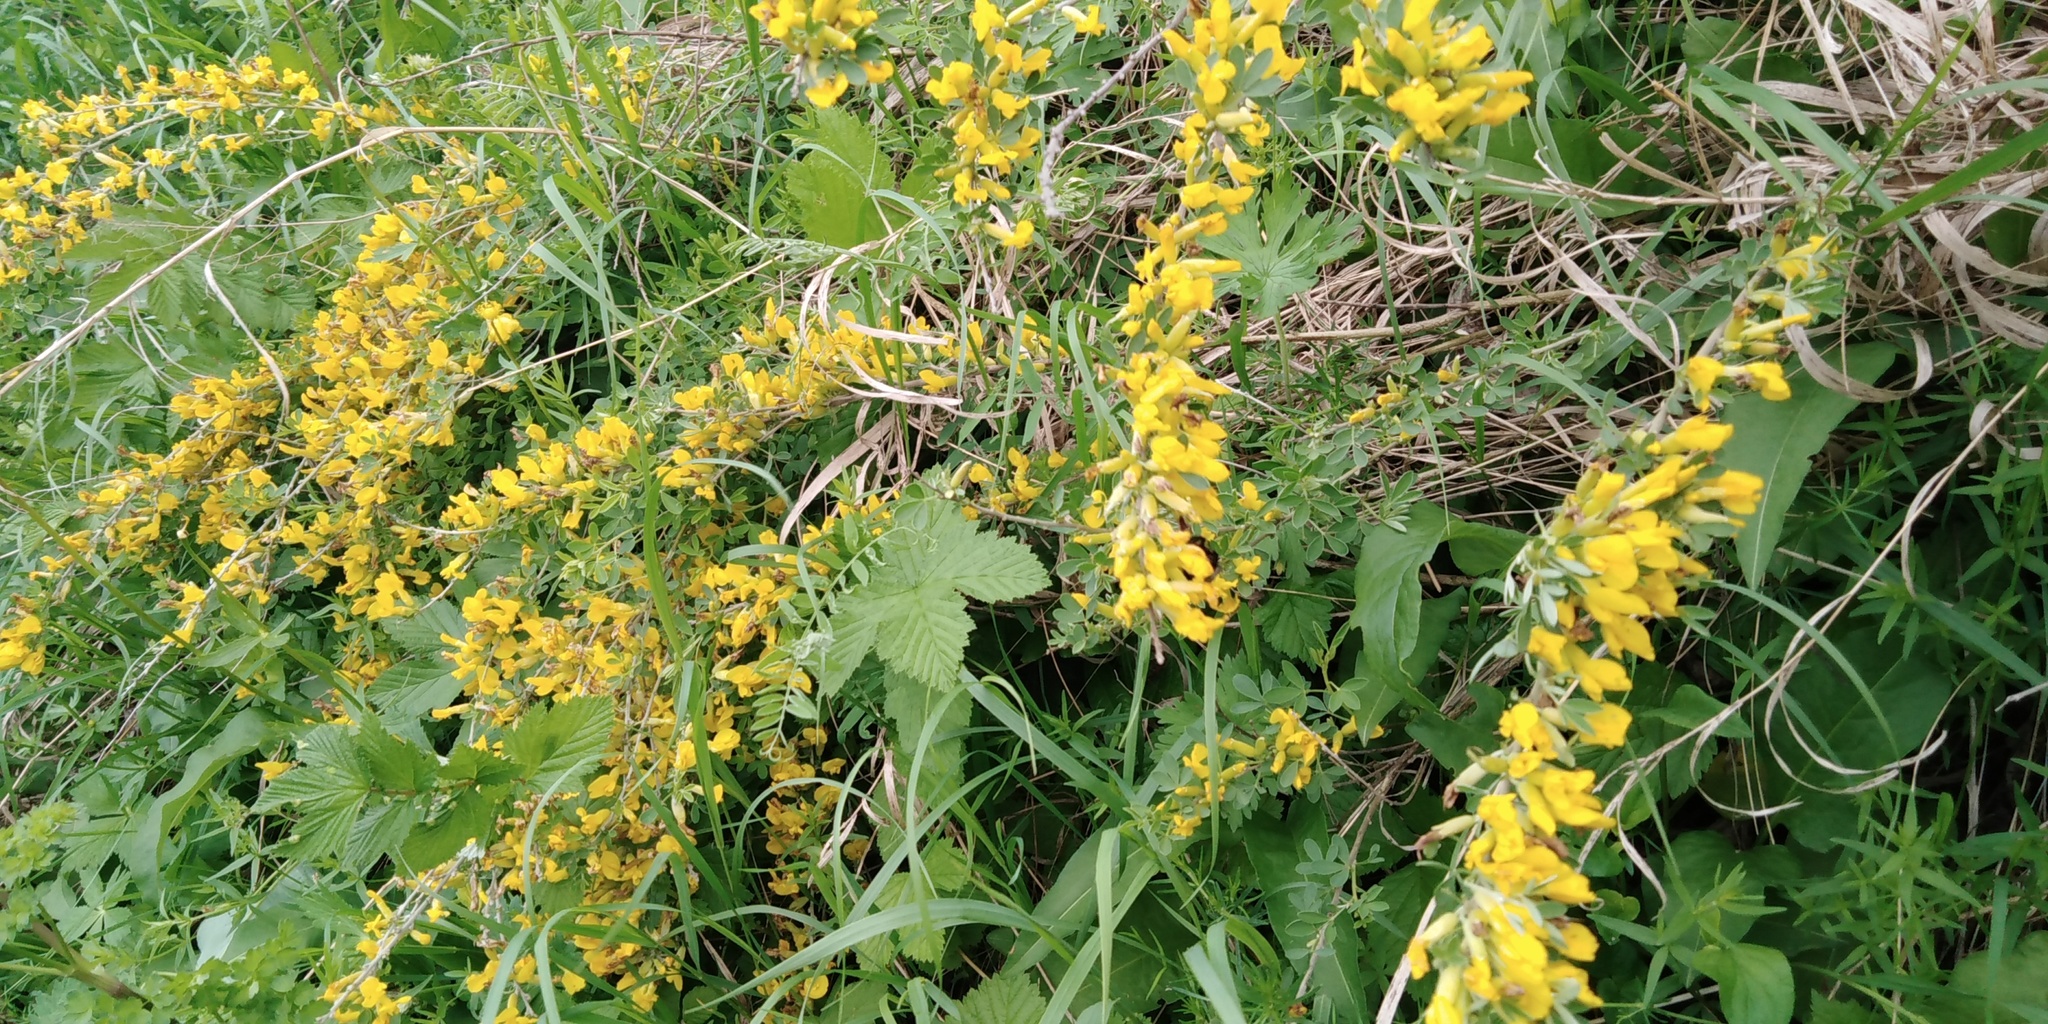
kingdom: Plantae
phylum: Tracheophyta
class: Magnoliopsida
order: Fabales
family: Fabaceae
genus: Chamaecytisus
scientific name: Chamaecytisus ruthenicus
